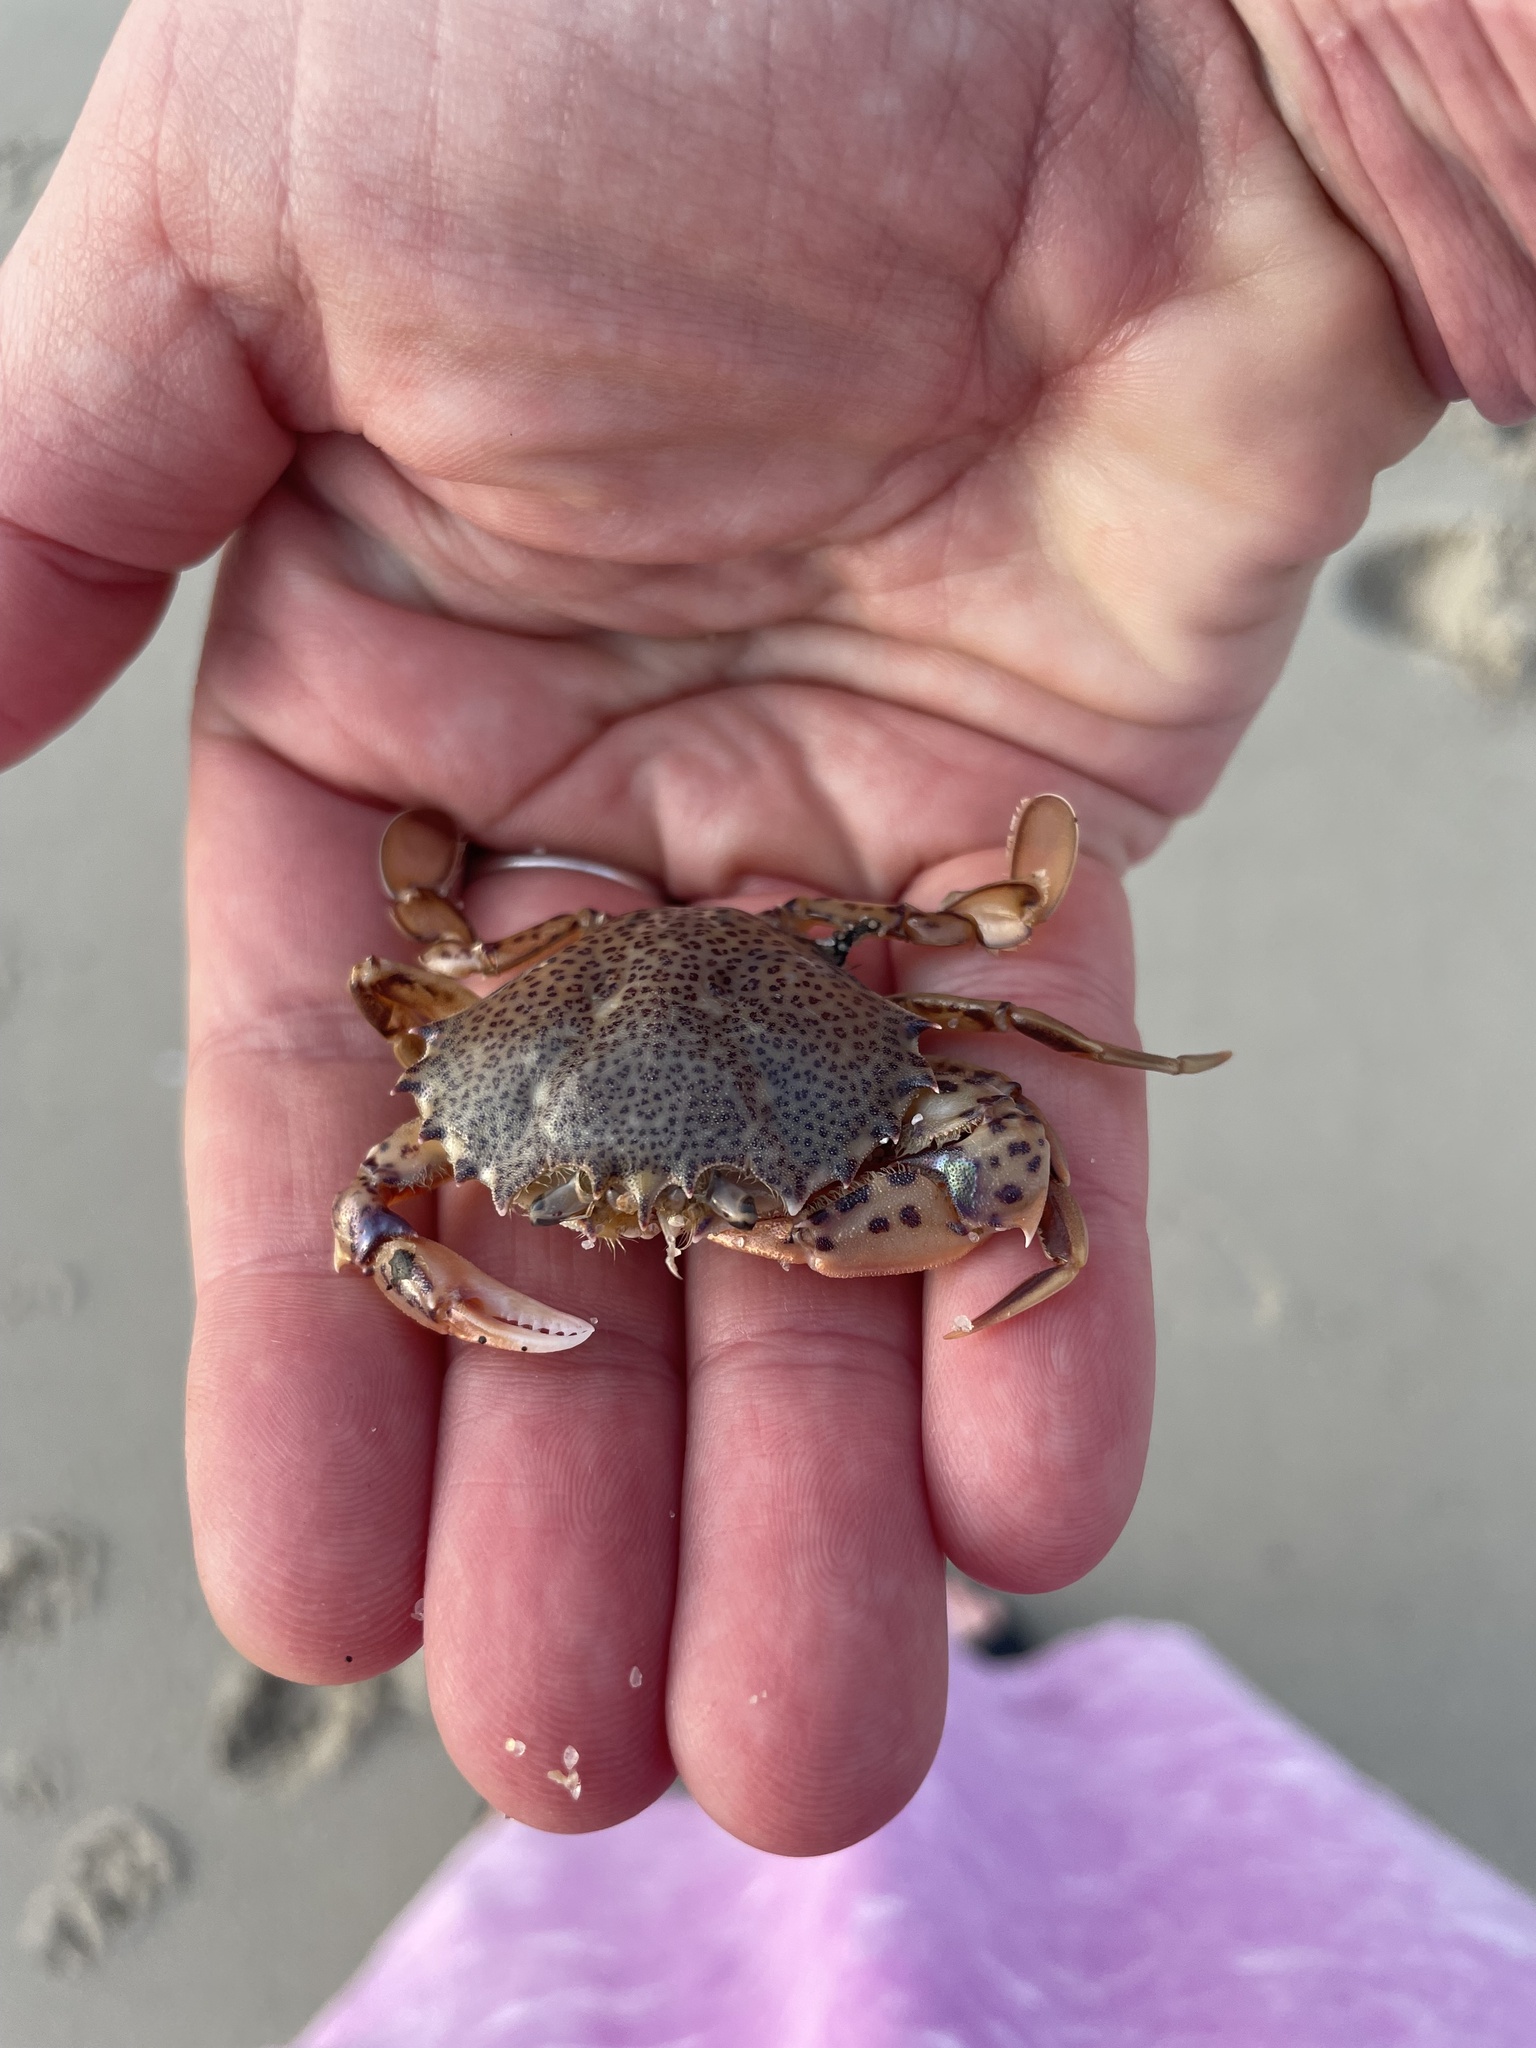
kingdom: Animalia
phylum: Arthropoda
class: Malacostraca
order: Decapoda
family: Ovalipidae
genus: Ovalipes
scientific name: Ovalipes ocellatus
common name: Lady crab
